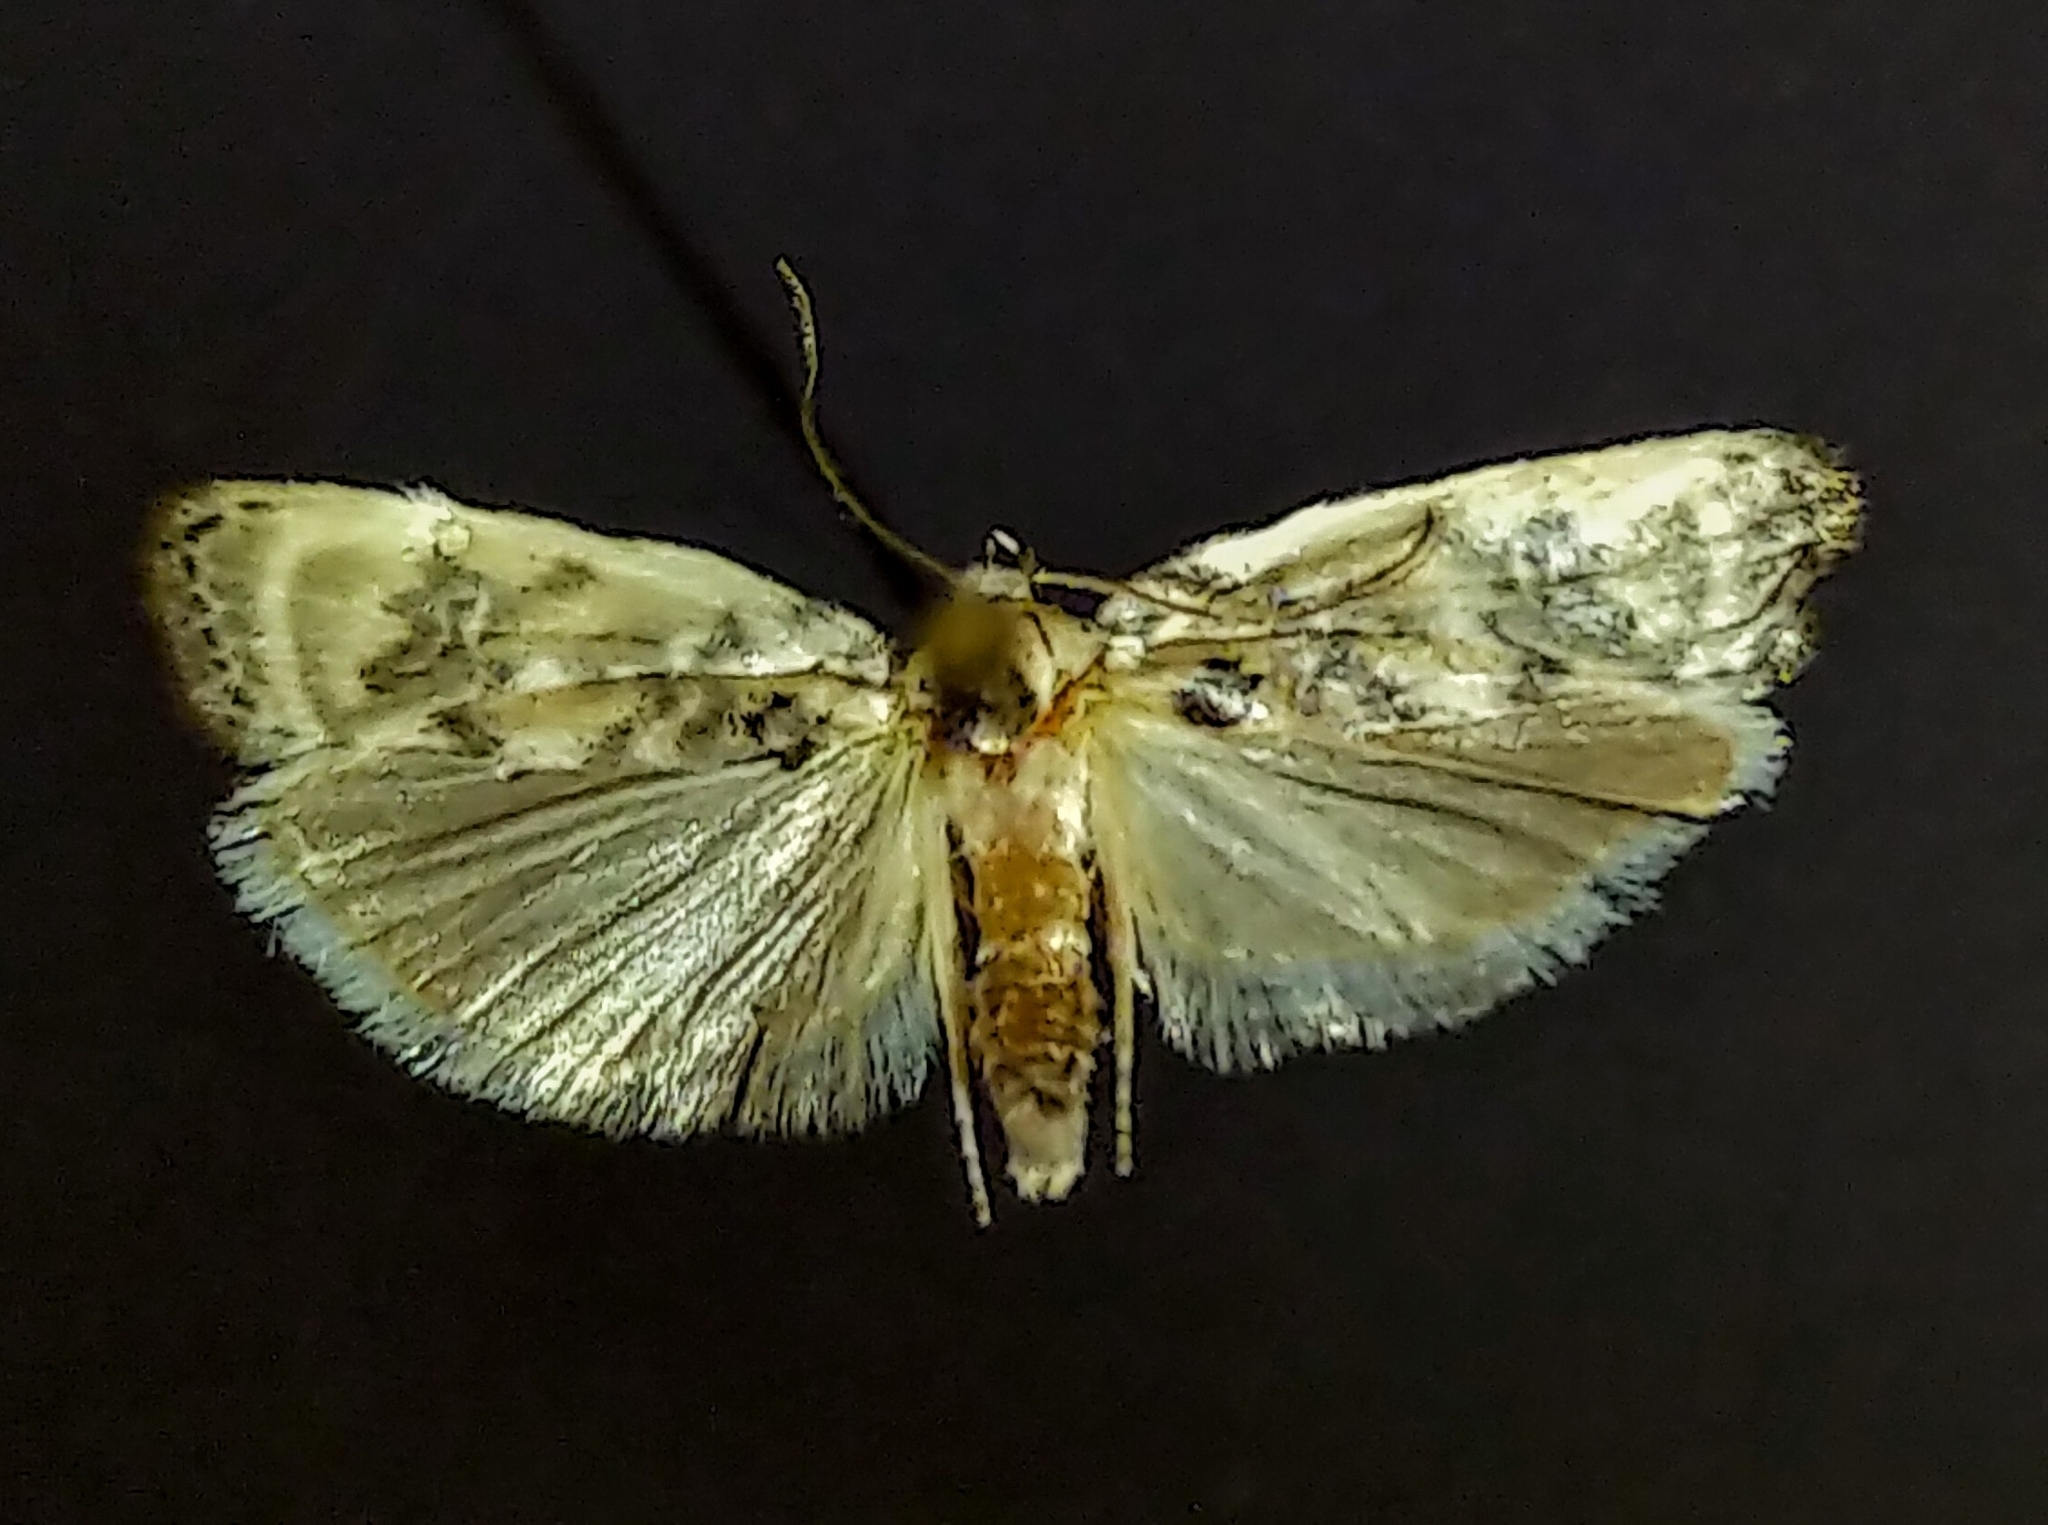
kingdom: Animalia
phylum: Arthropoda
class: Insecta
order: Lepidoptera
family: Depressariidae
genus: Antaeotricha
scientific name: Antaeotricha leucillana
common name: Pale gray bird-dropping moth
